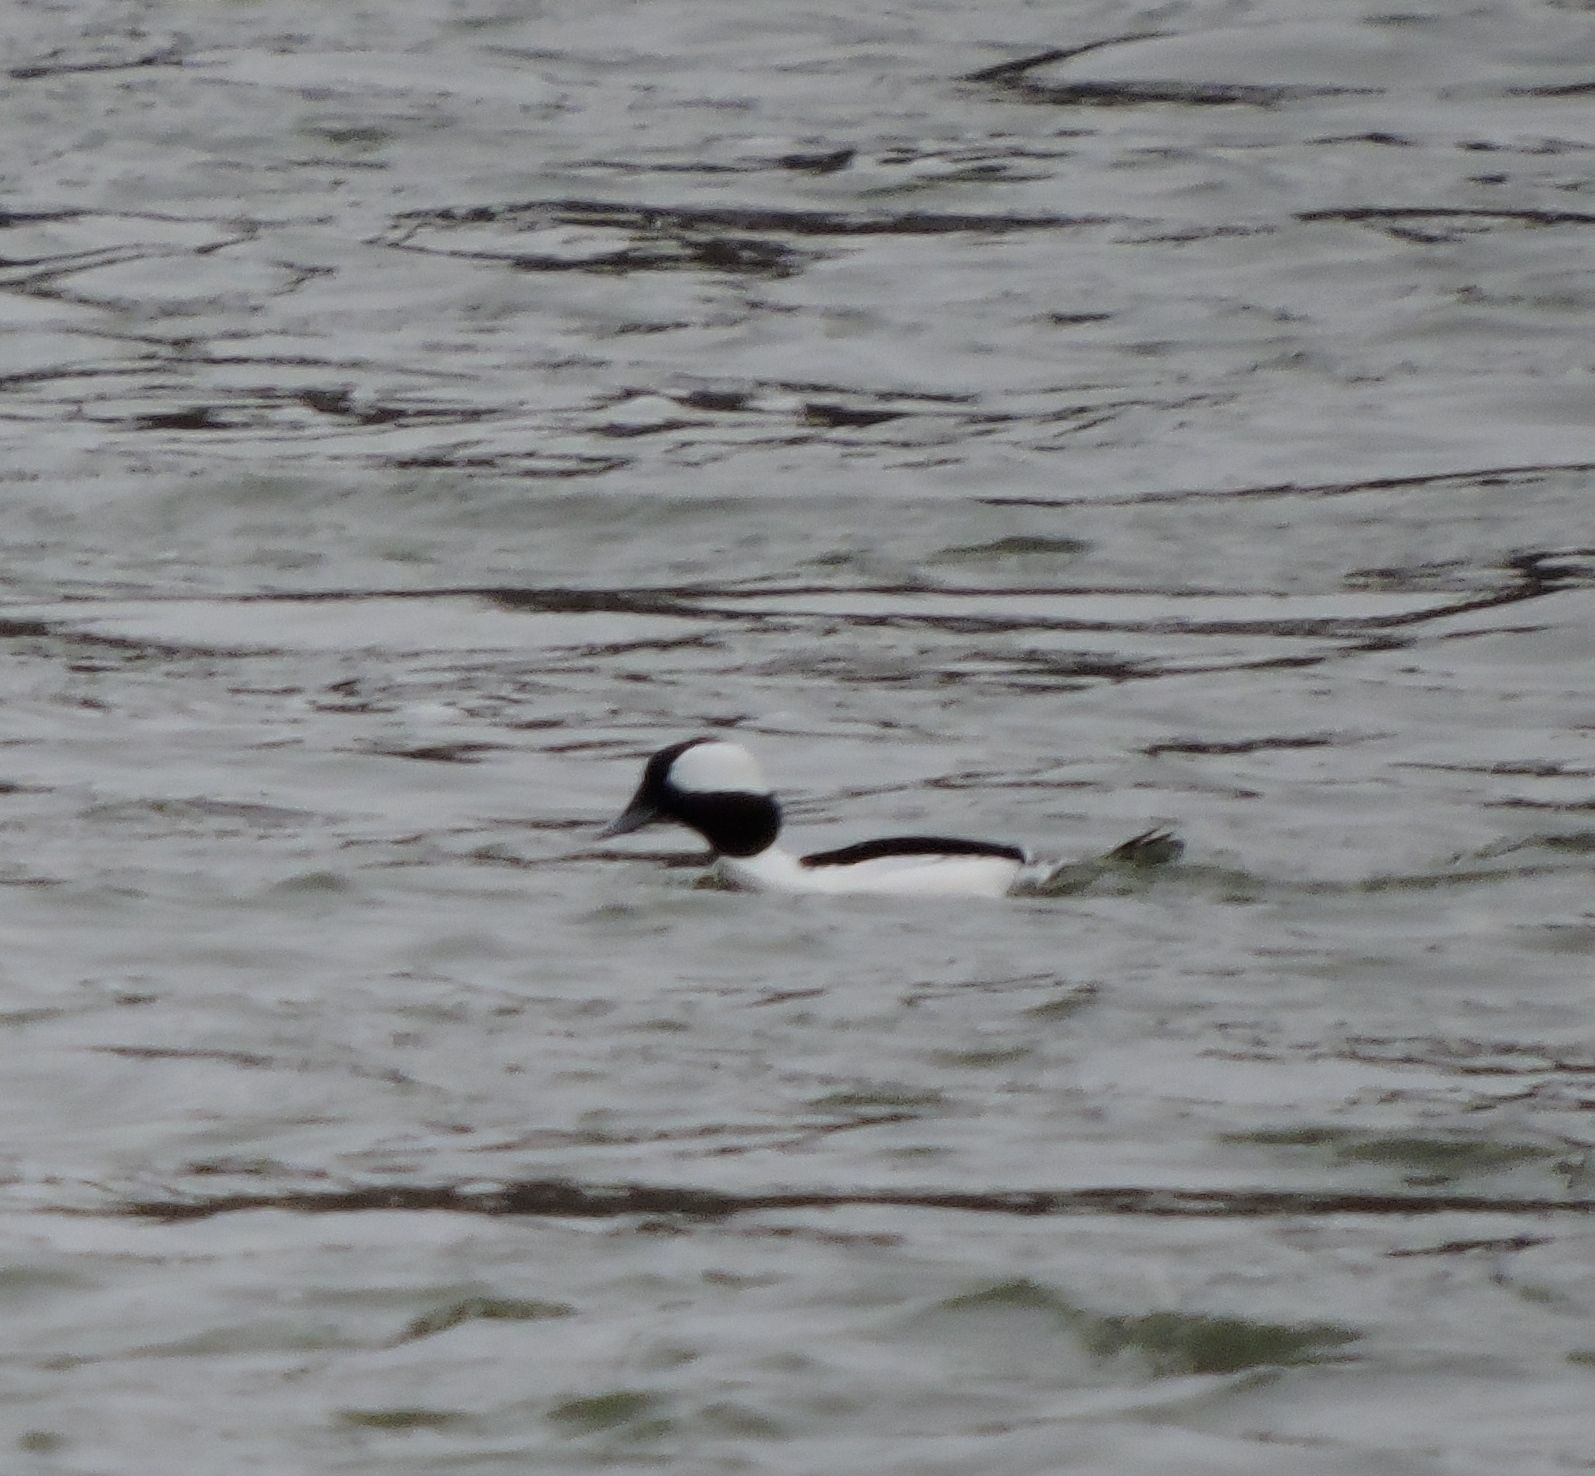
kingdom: Animalia
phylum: Chordata
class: Aves
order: Anseriformes
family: Anatidae
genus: Bucephala
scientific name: Bucephala albeola
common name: Bufflehead
